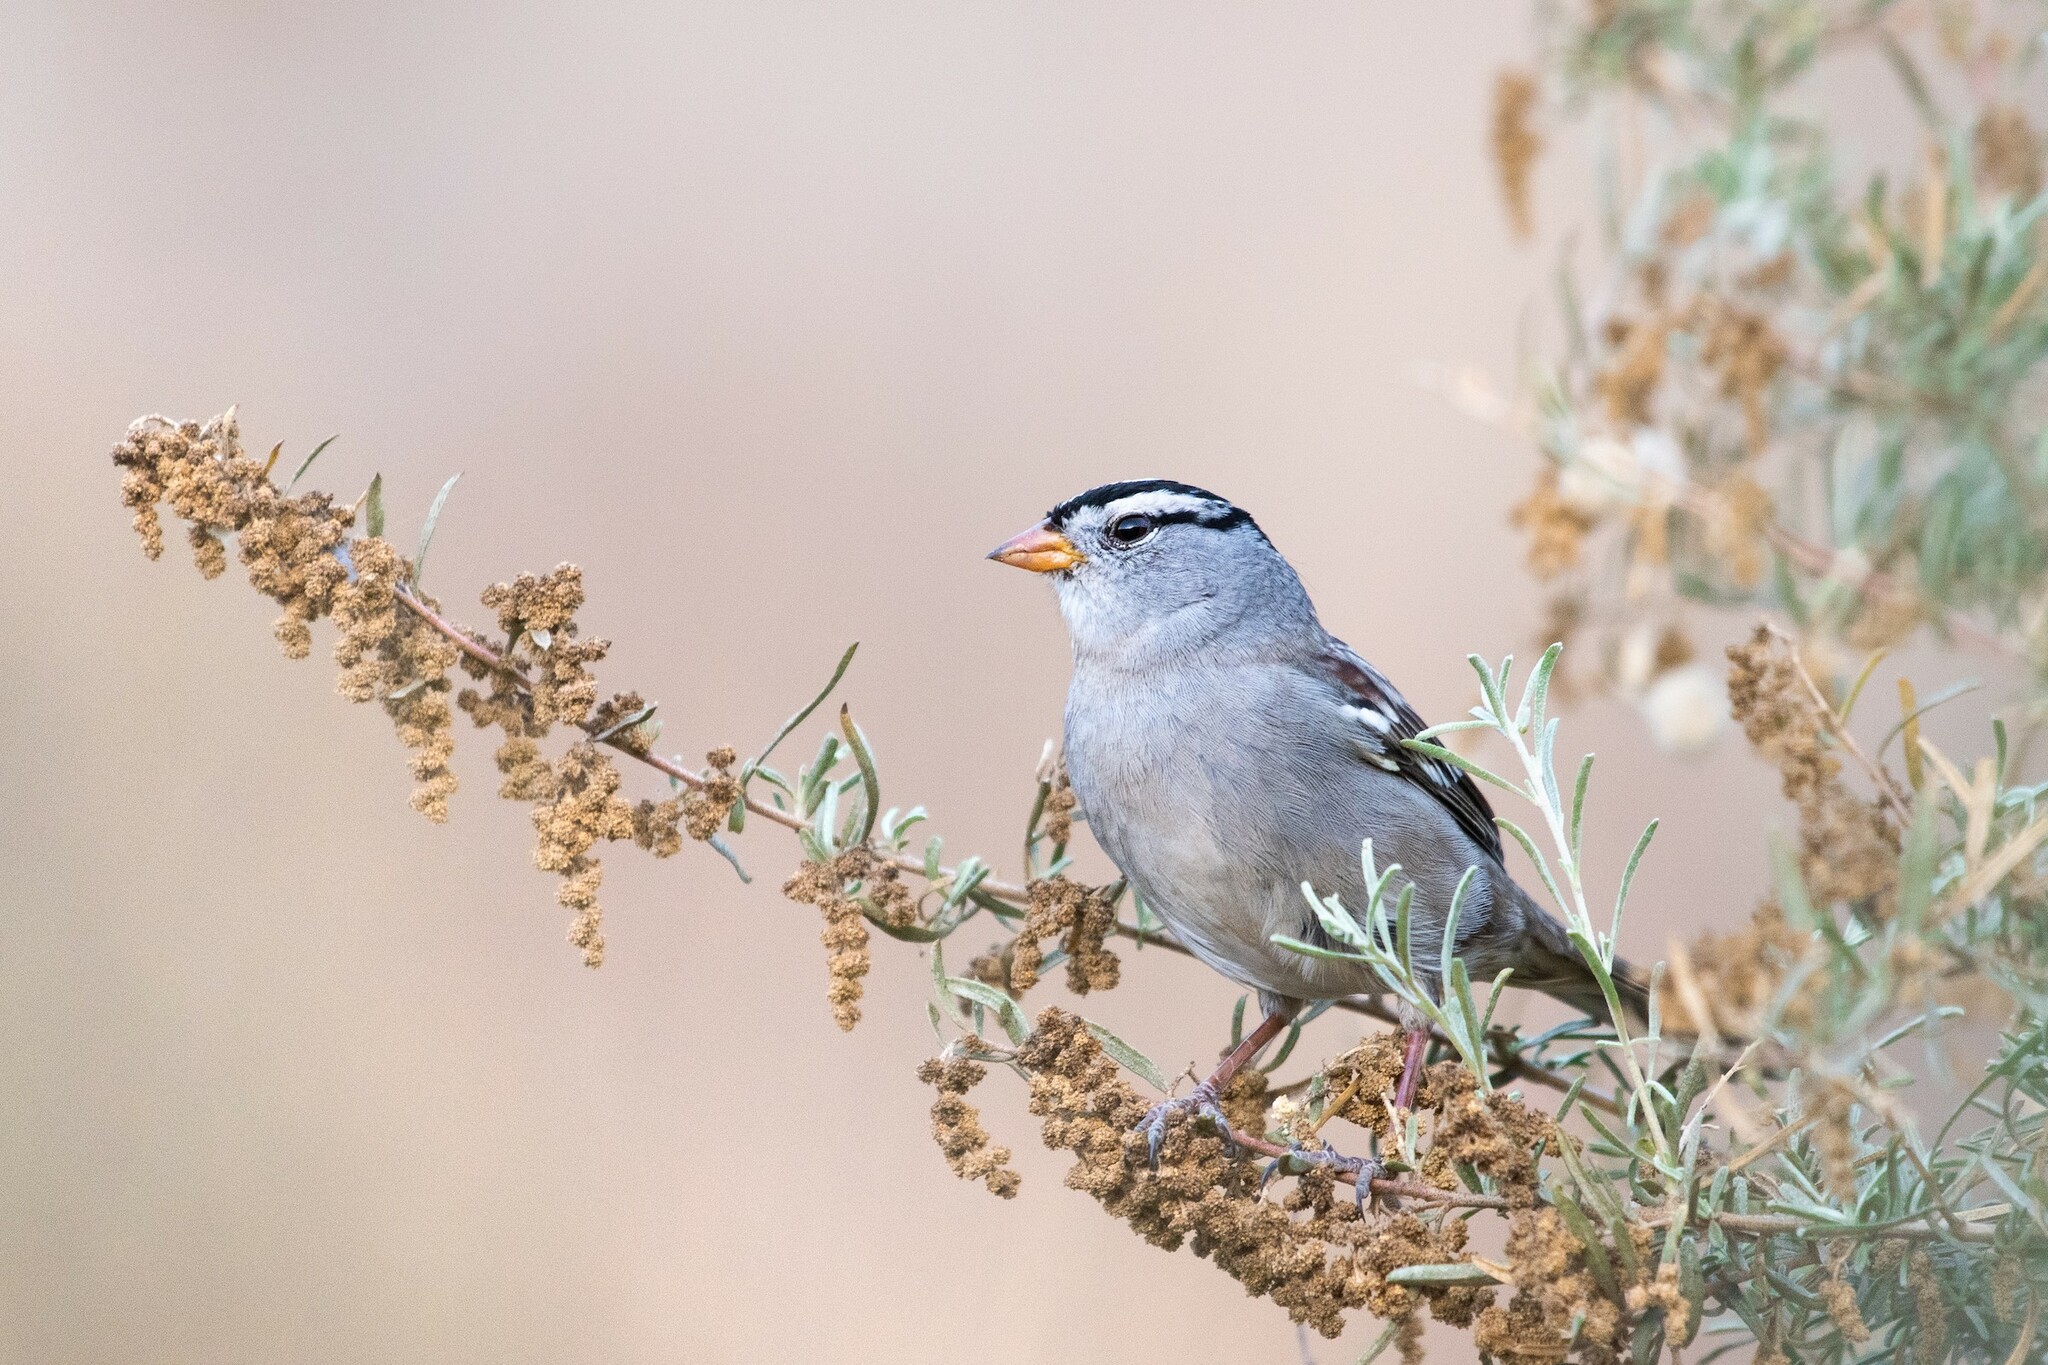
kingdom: Animalia
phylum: Chordata
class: Aves
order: Passeriformes
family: Passerellidae
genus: Zonotrichia
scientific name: Zonotrichia leucophrys
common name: White-crowned sparrow
